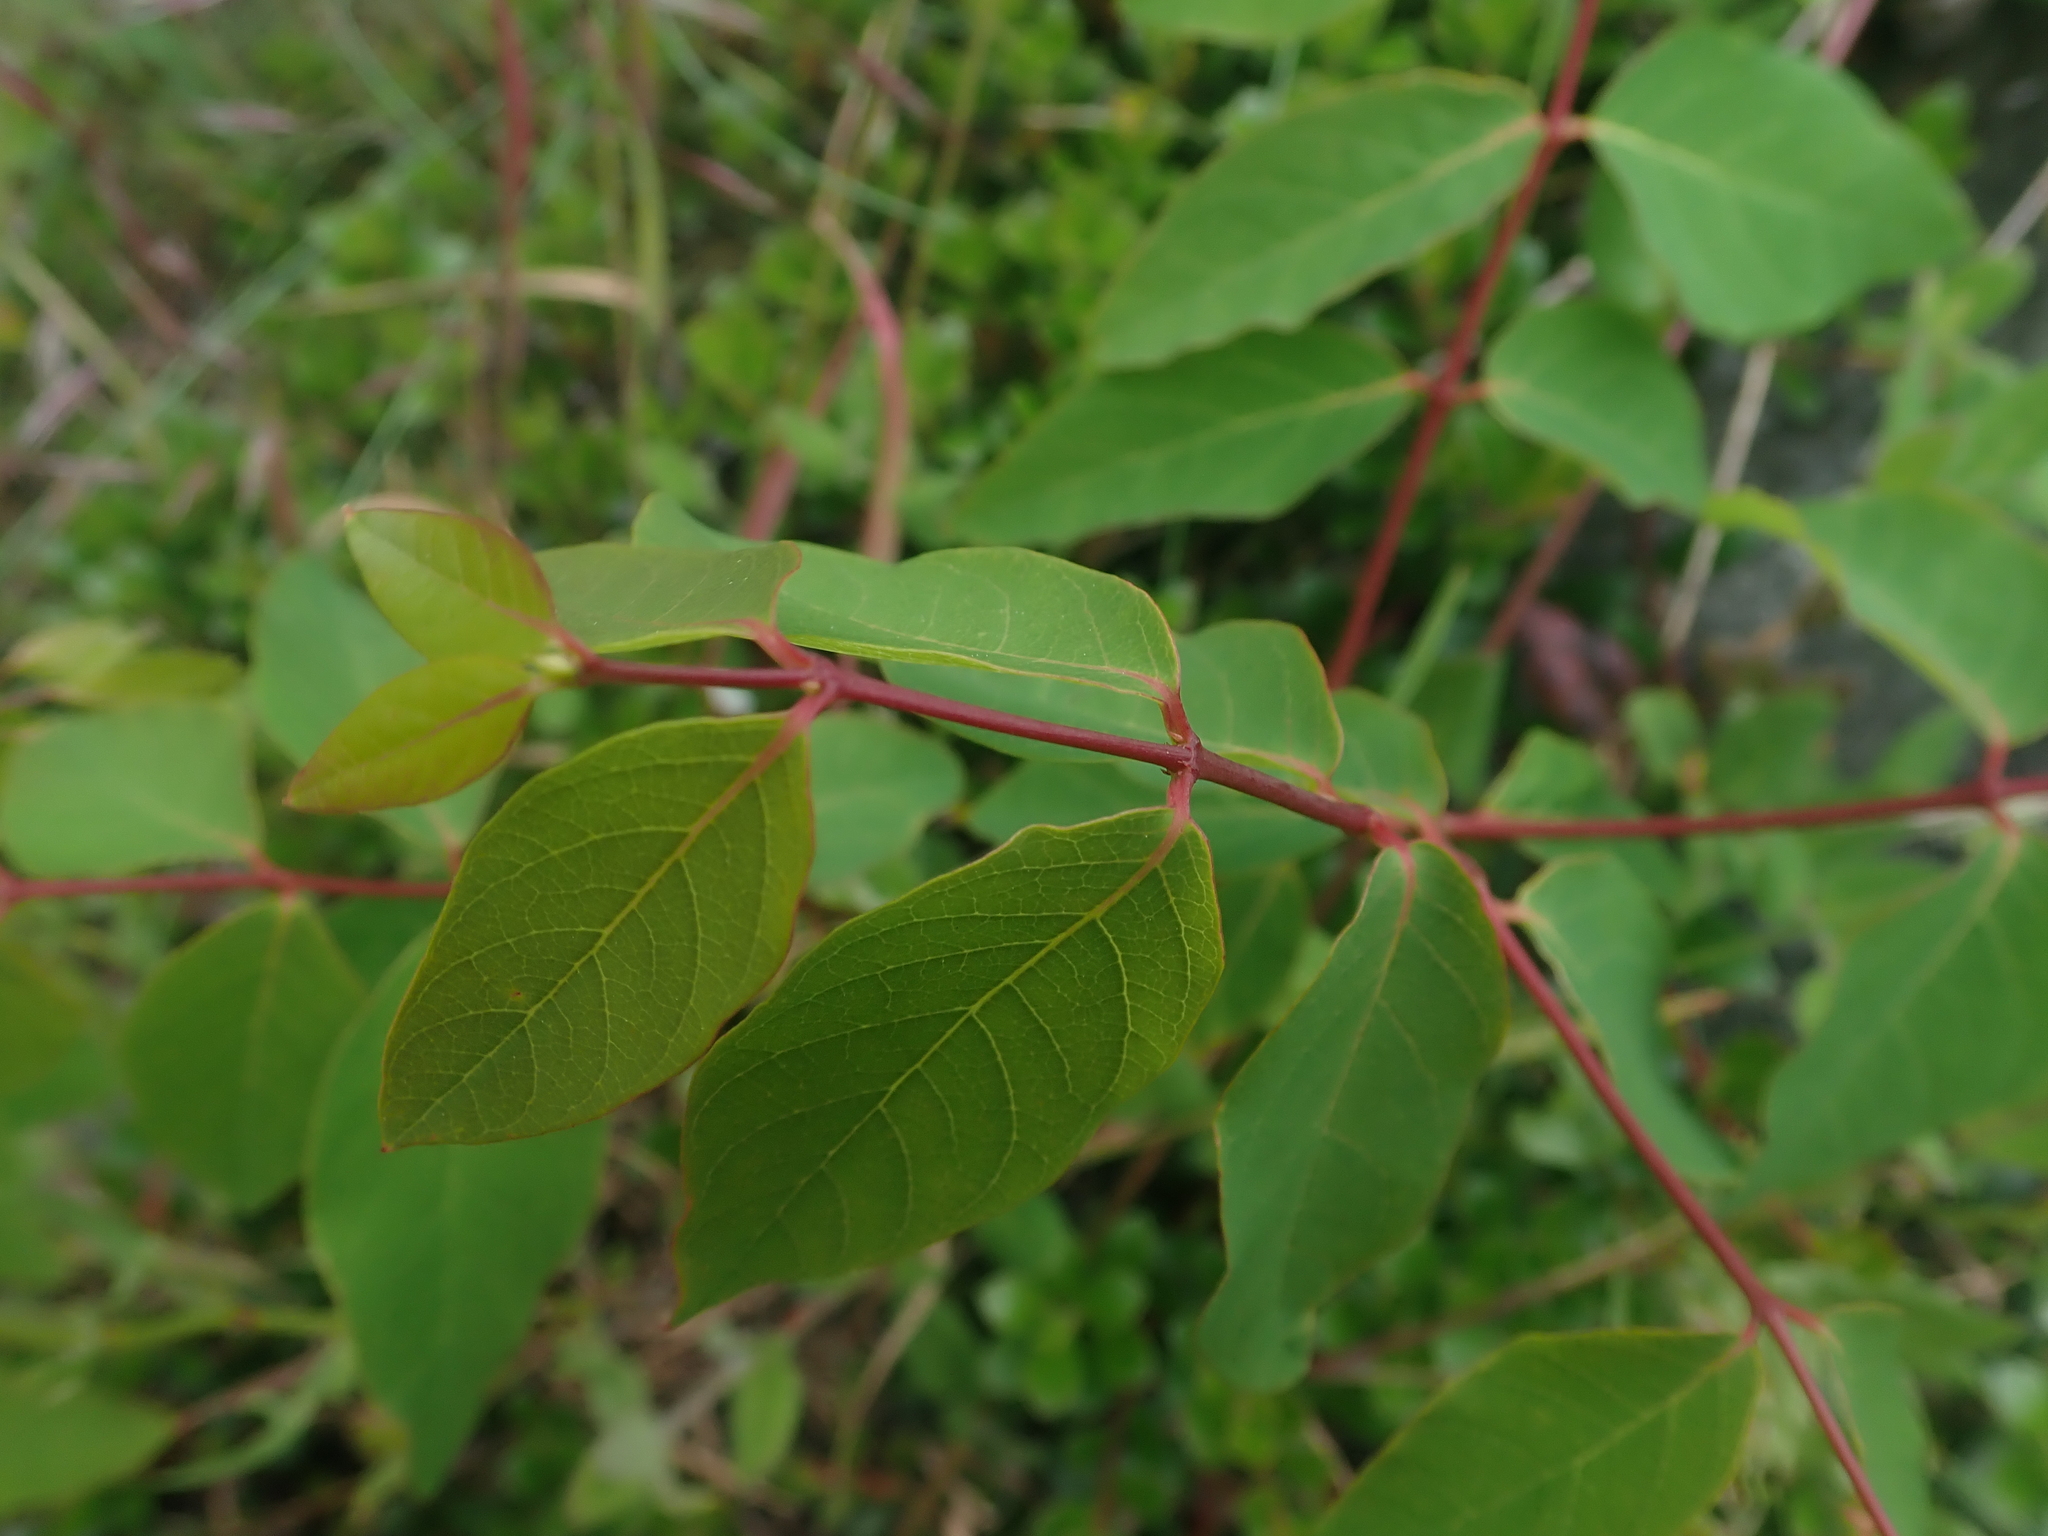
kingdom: Plantae
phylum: Tracheophyta
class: Magnoliopsida
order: Gentianales
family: Apocynaceae
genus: Apocynum
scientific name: Apocynum androsaemifolium
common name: Spreading dogbane
